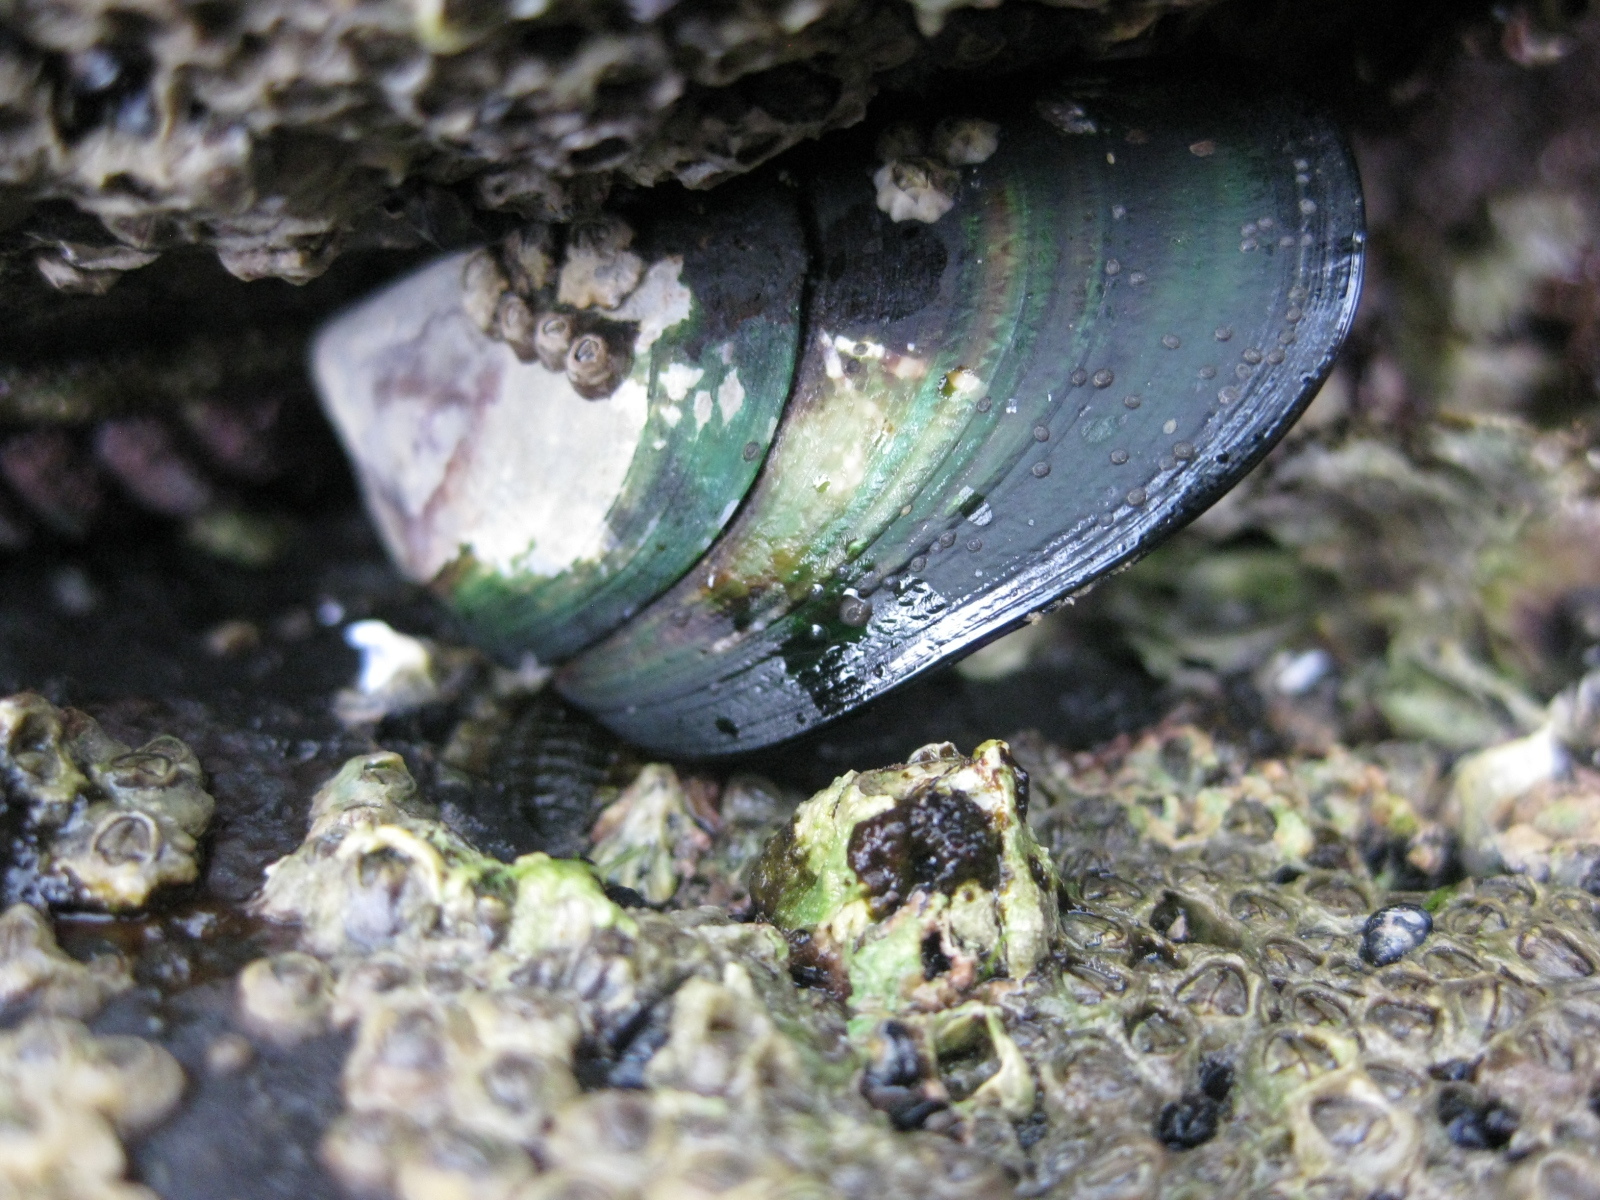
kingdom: Animalia
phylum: Mollusca
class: Bivalvia
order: Mytilida
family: Mytilidae
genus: Perna
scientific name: Perna canaliculus
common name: New zealand greenshelltm
